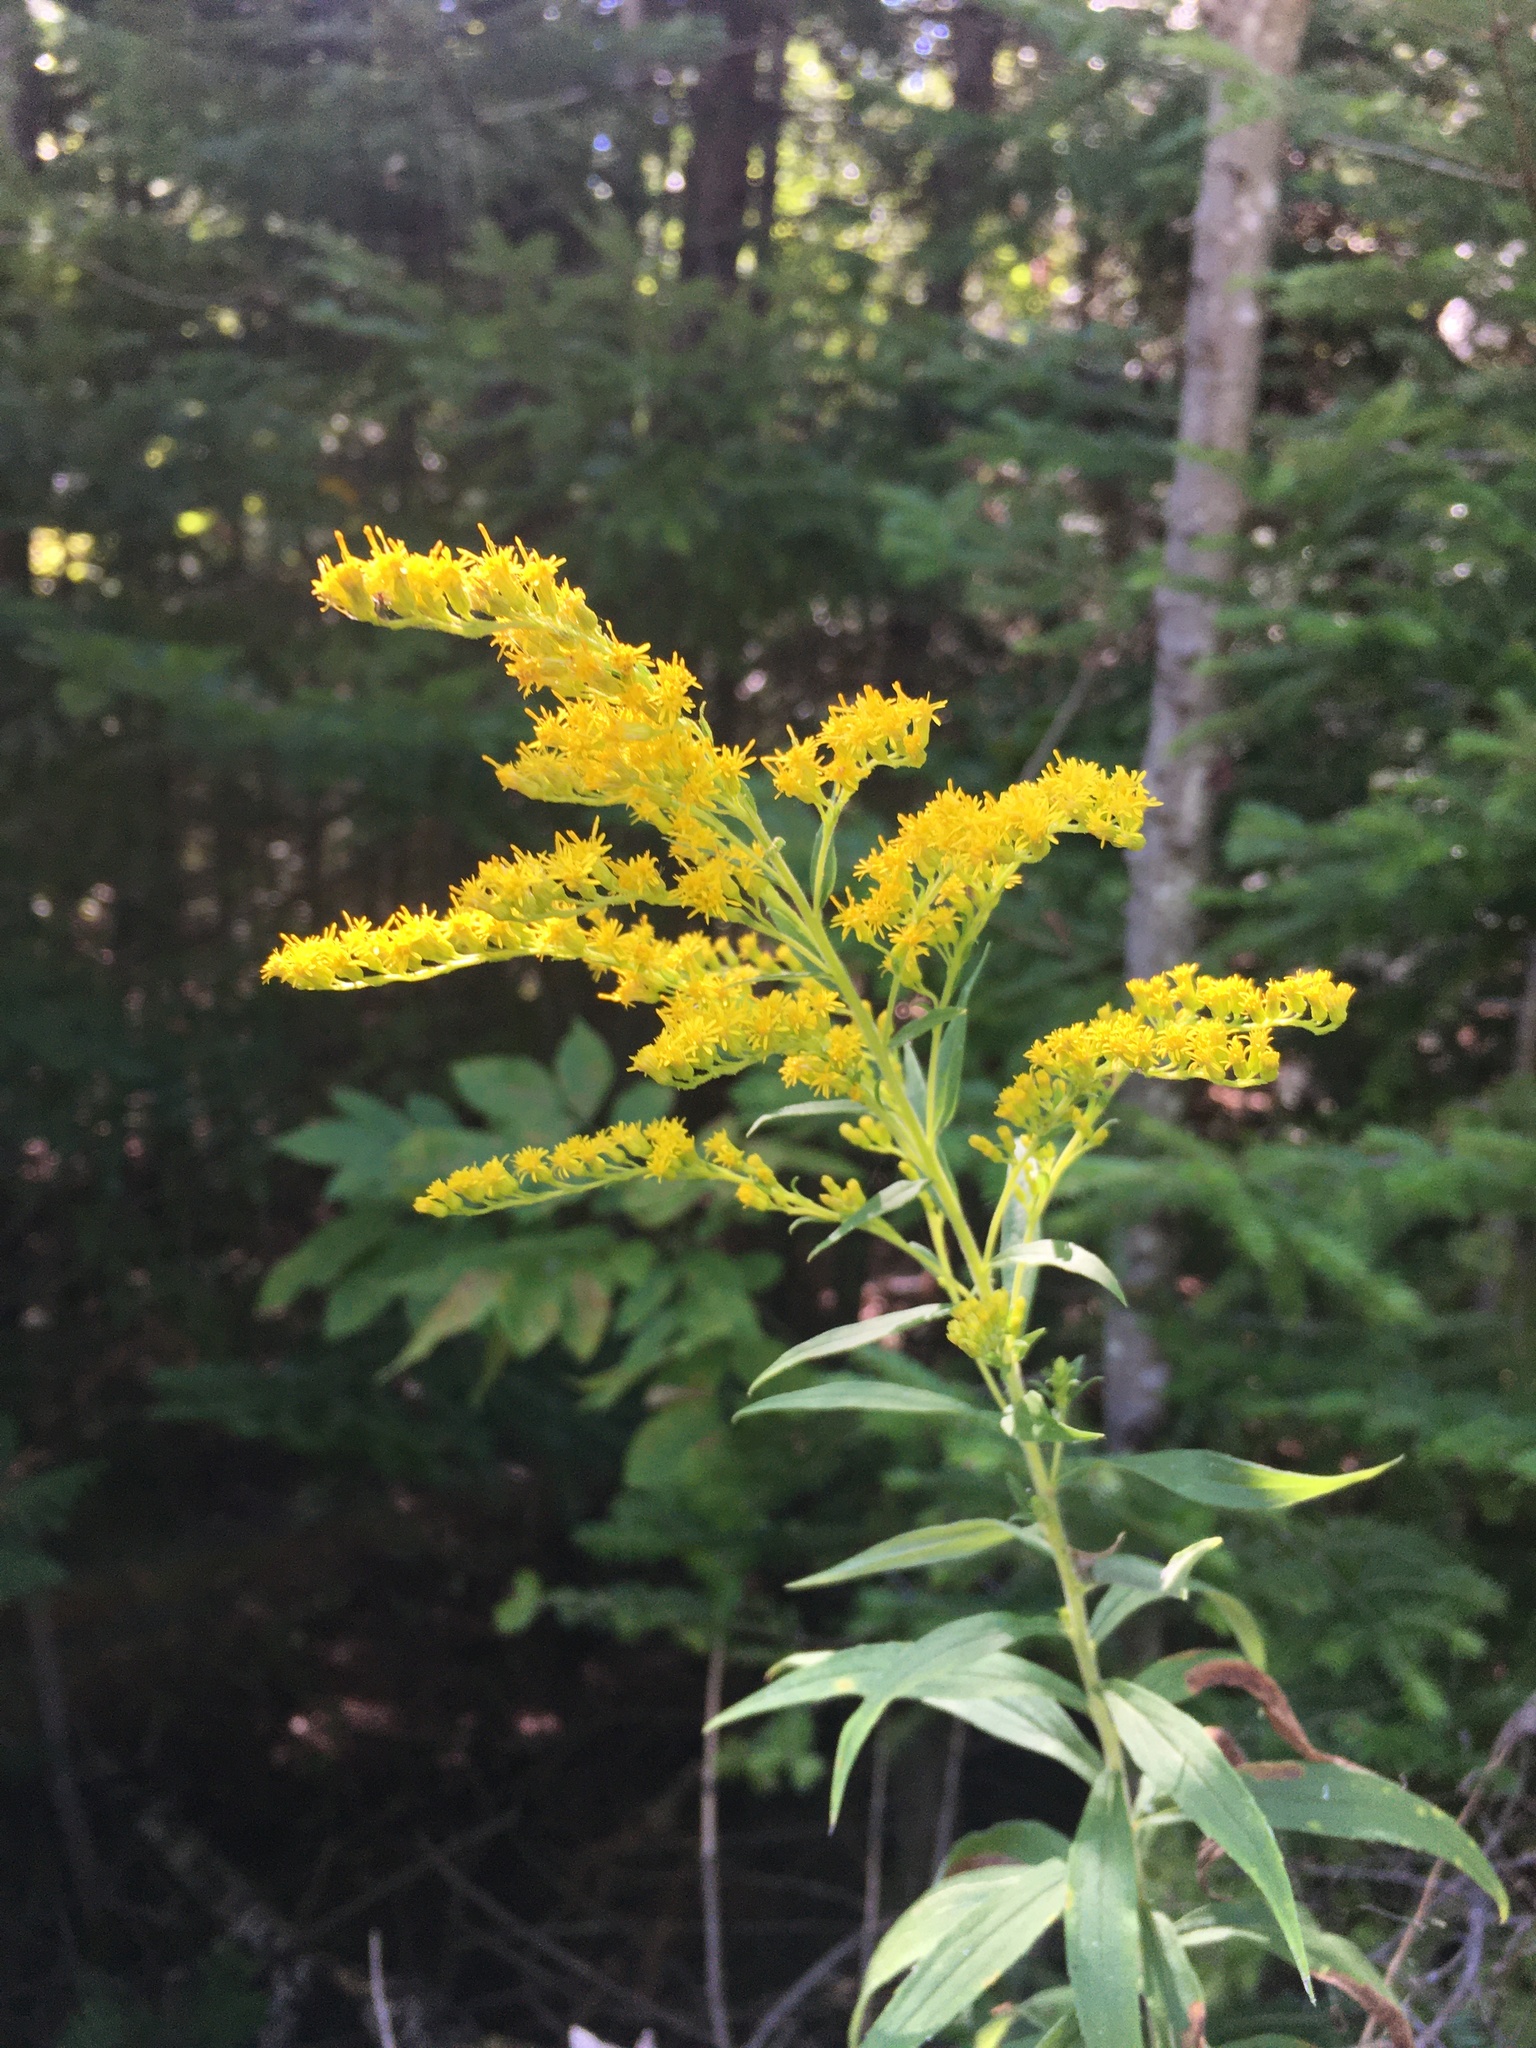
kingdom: Plantae
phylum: Tracheophyta
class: Magnoliopsida
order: Asterales
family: Asteraceae
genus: Solidago
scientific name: Solidago canadensis
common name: Canada goldenrod
